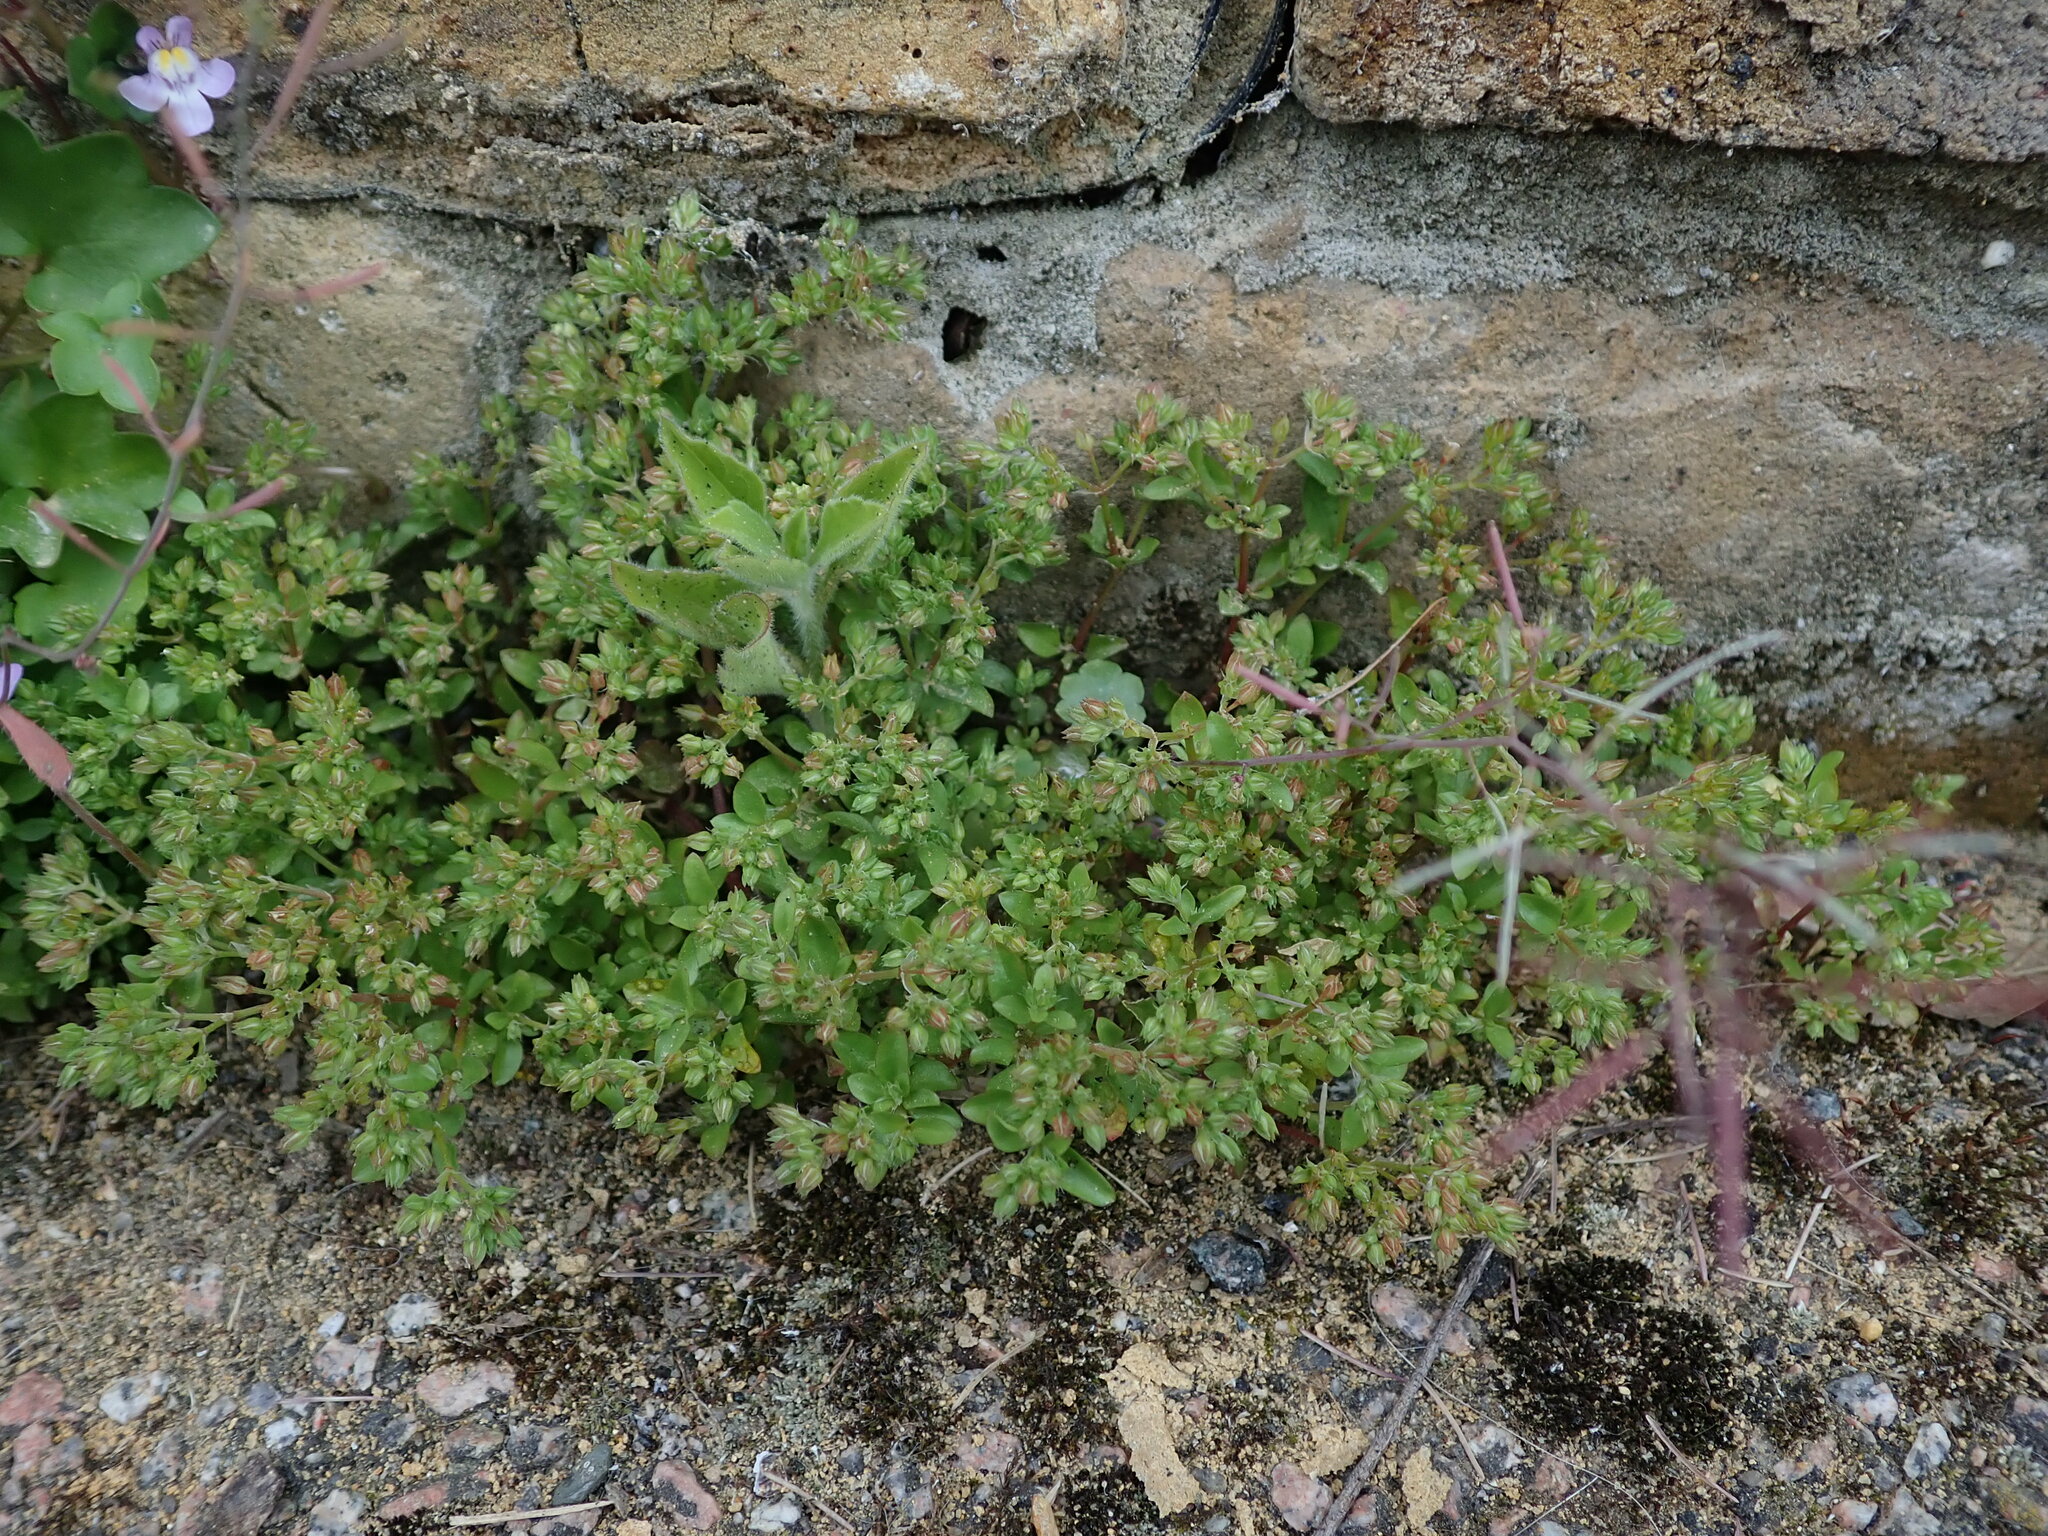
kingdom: Plantae
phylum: Tracheophyta
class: Magnoliopsida
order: Caryophyllales
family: Caryophyllaceae
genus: Polycarpon
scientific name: Polycarpon tetraphyllum
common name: Four-leaved all-seed
